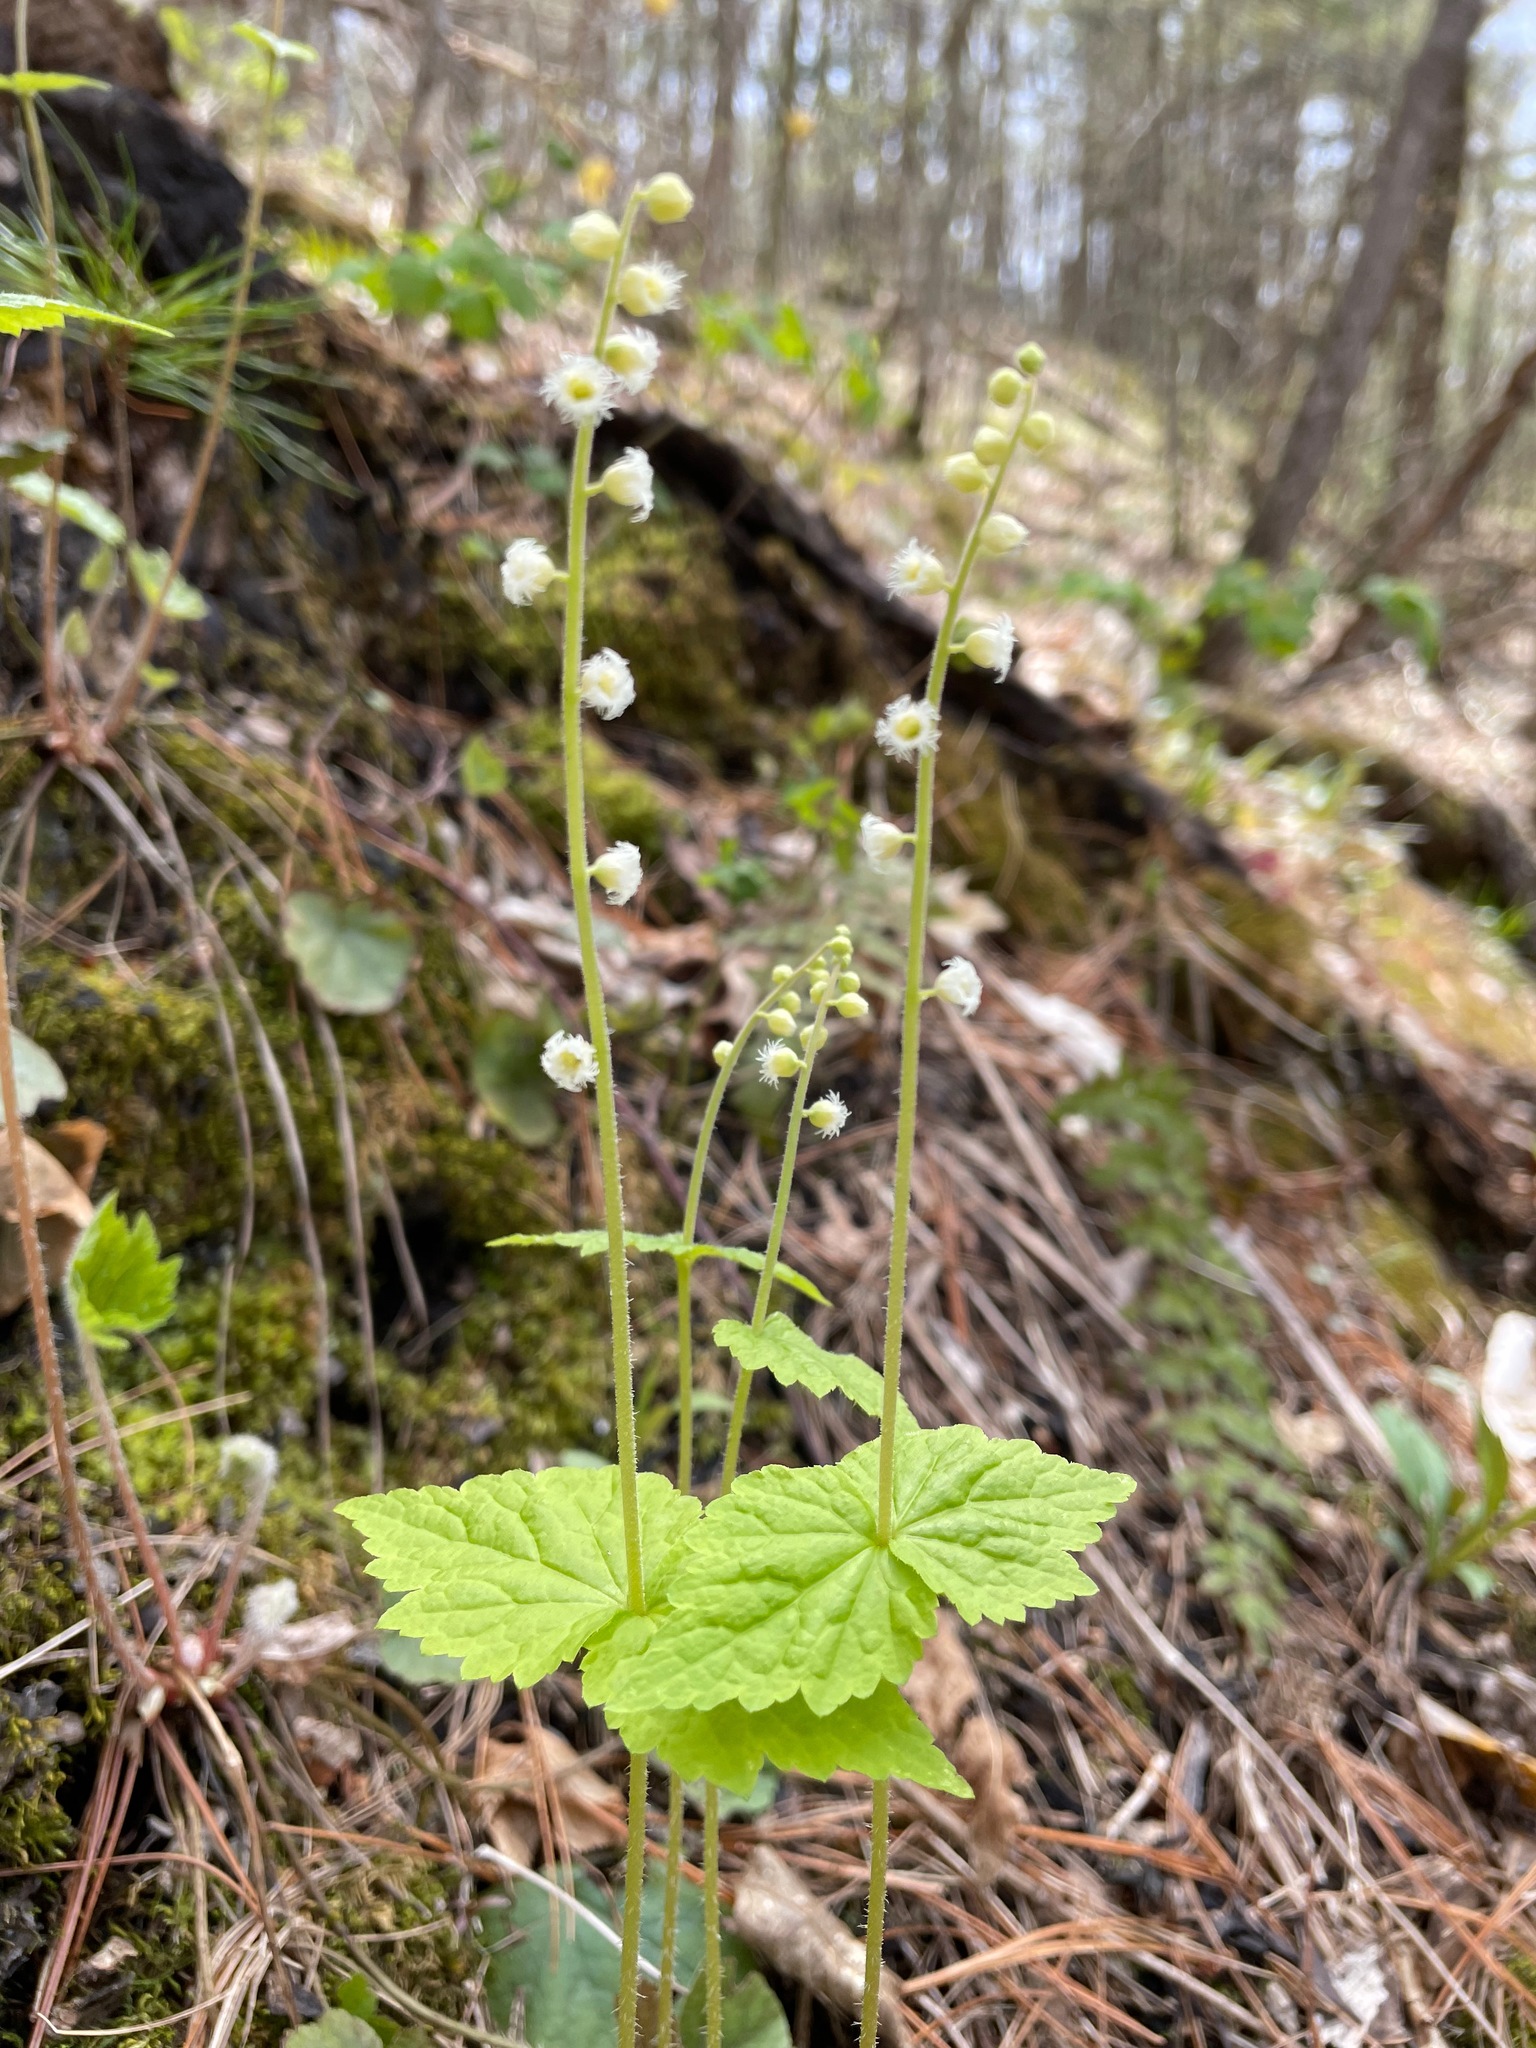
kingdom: Plantae
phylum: Tracheophyta
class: Magnoliopsida
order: Saxifragales
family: Saxifragaceae
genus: Mitella
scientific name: Mitella diphylla
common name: Coolwort
